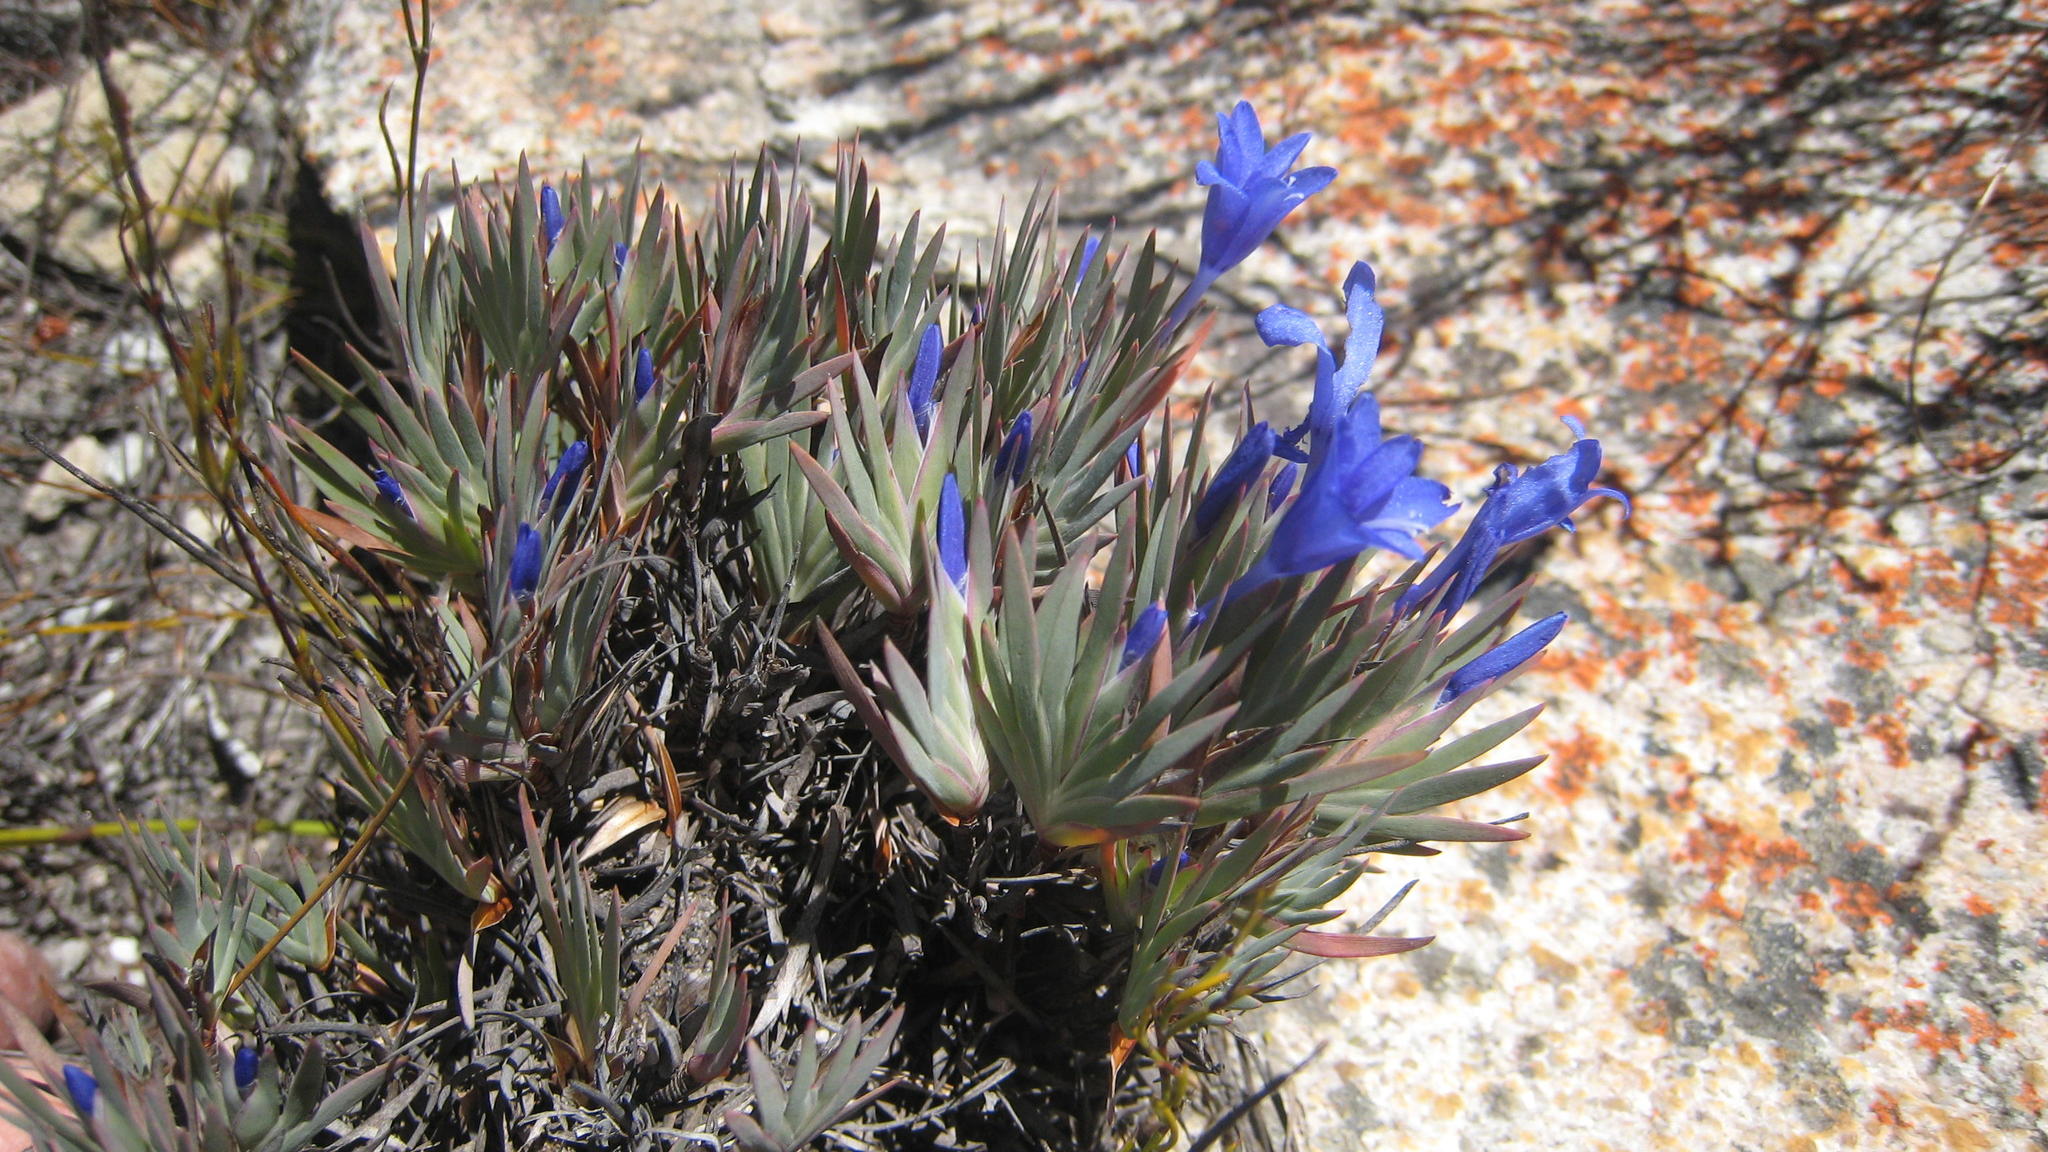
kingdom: Plantae
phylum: Tracheophyta
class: Liliopsida
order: Asparagales
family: Iridaceae
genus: Nivenia
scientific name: Nivenia fruticosa
